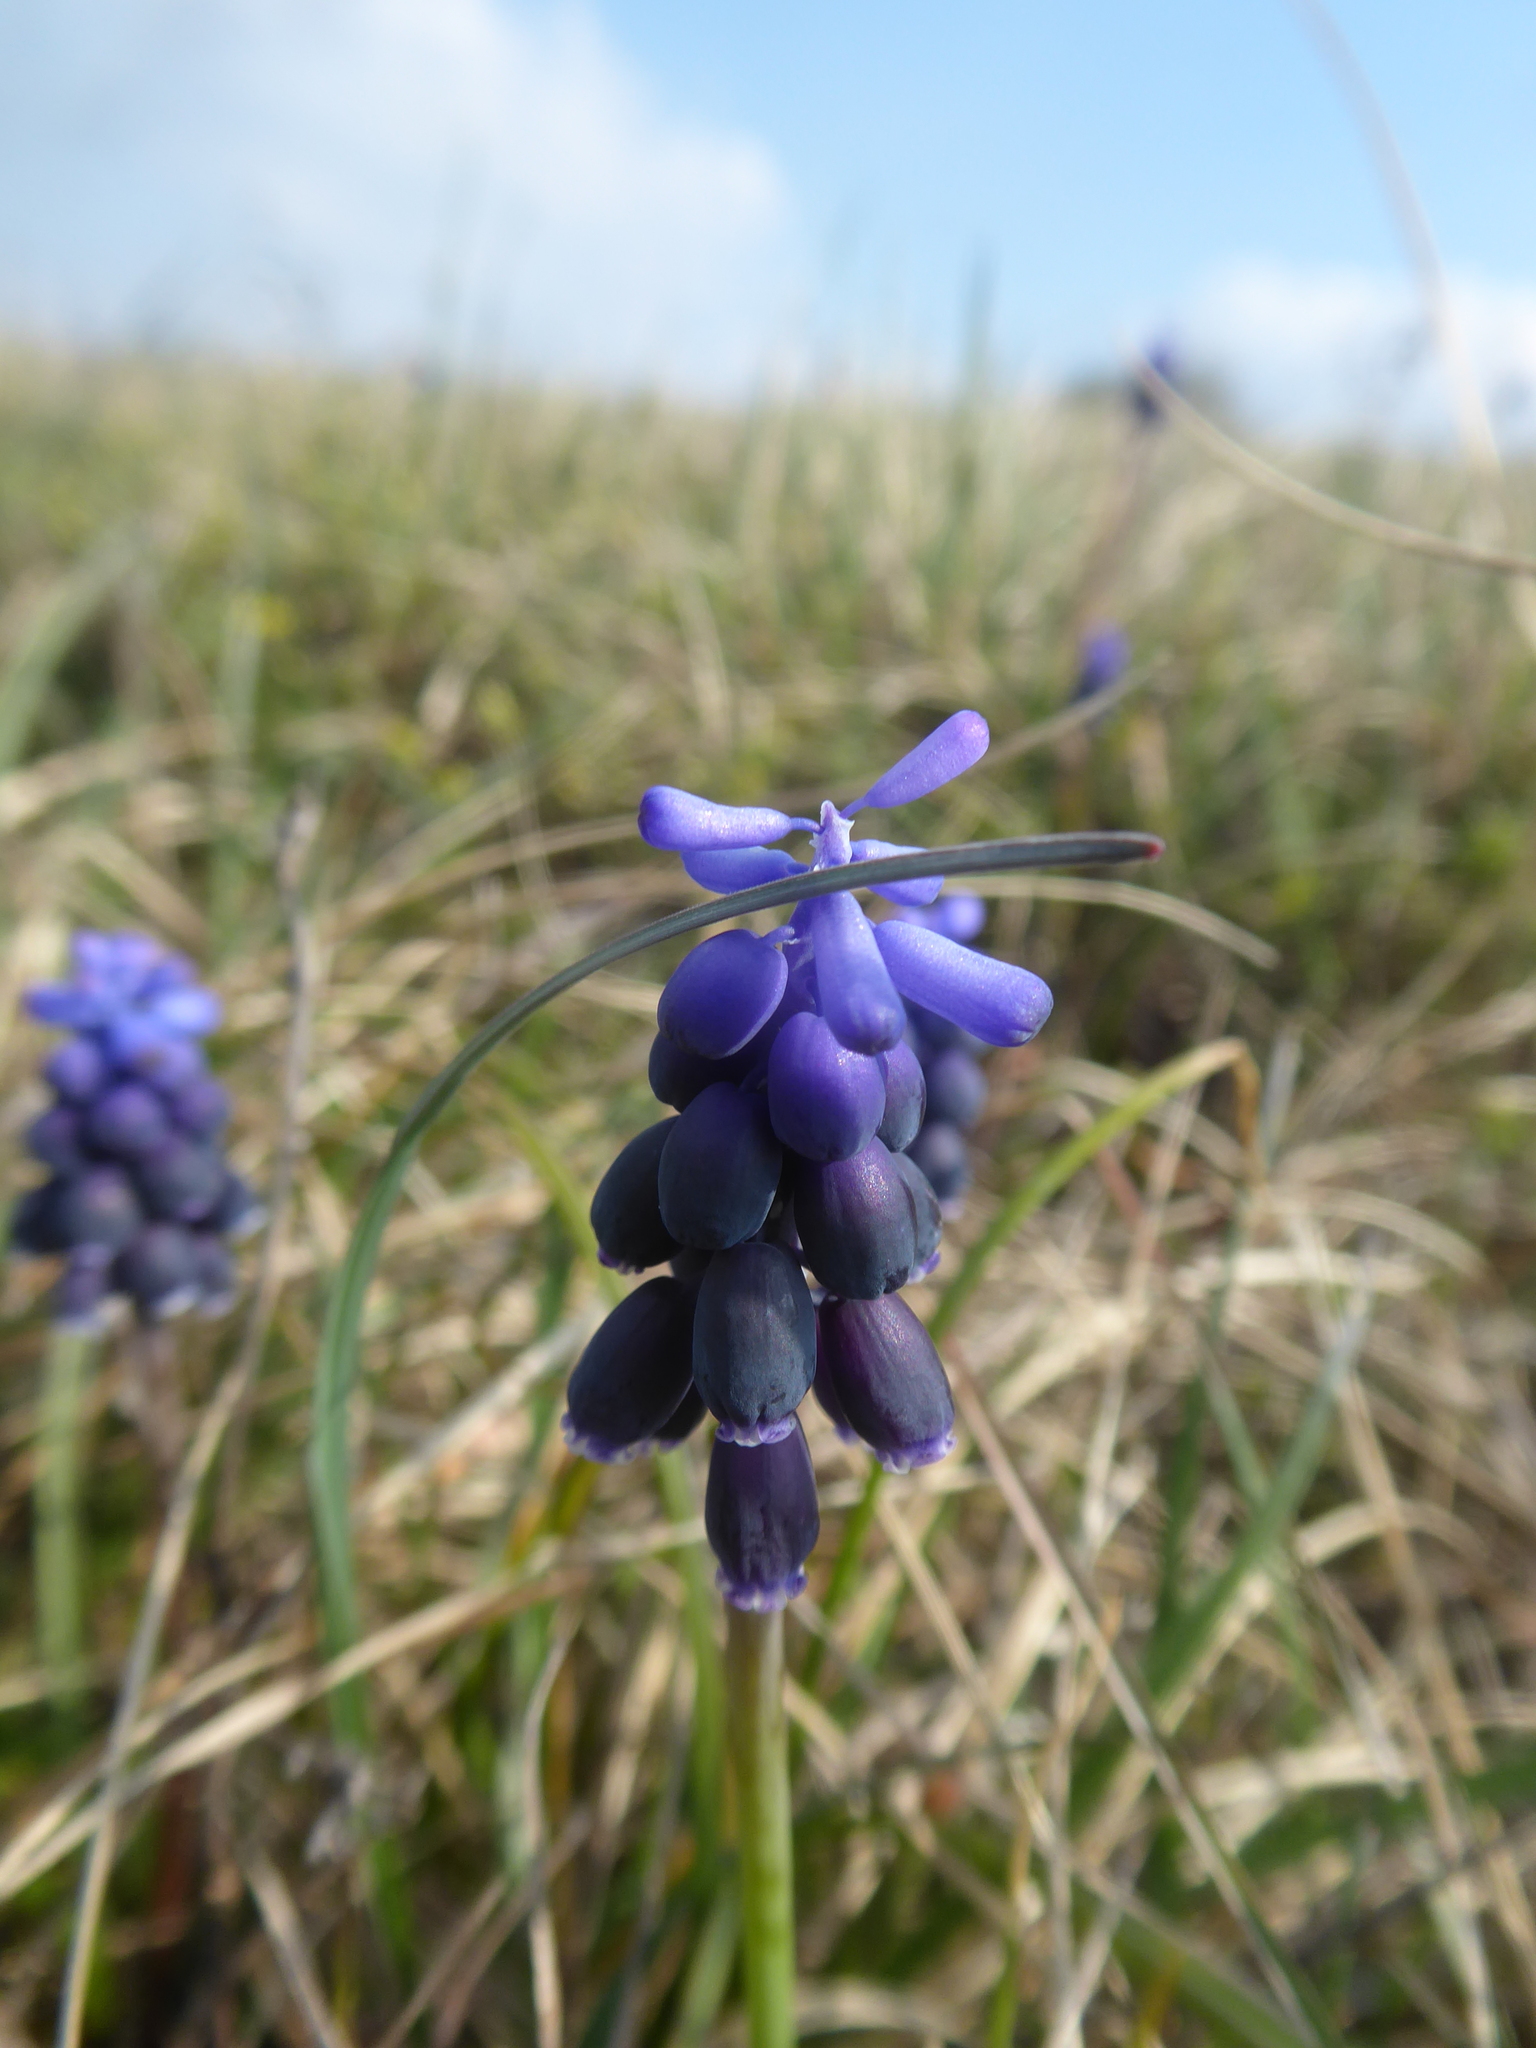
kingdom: Plantae
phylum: Tracheophyta
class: Liliopsida
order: Asparagales
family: Asparagaceae
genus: Muscari
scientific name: Muscari neglectum
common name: Grape-hyacinth
